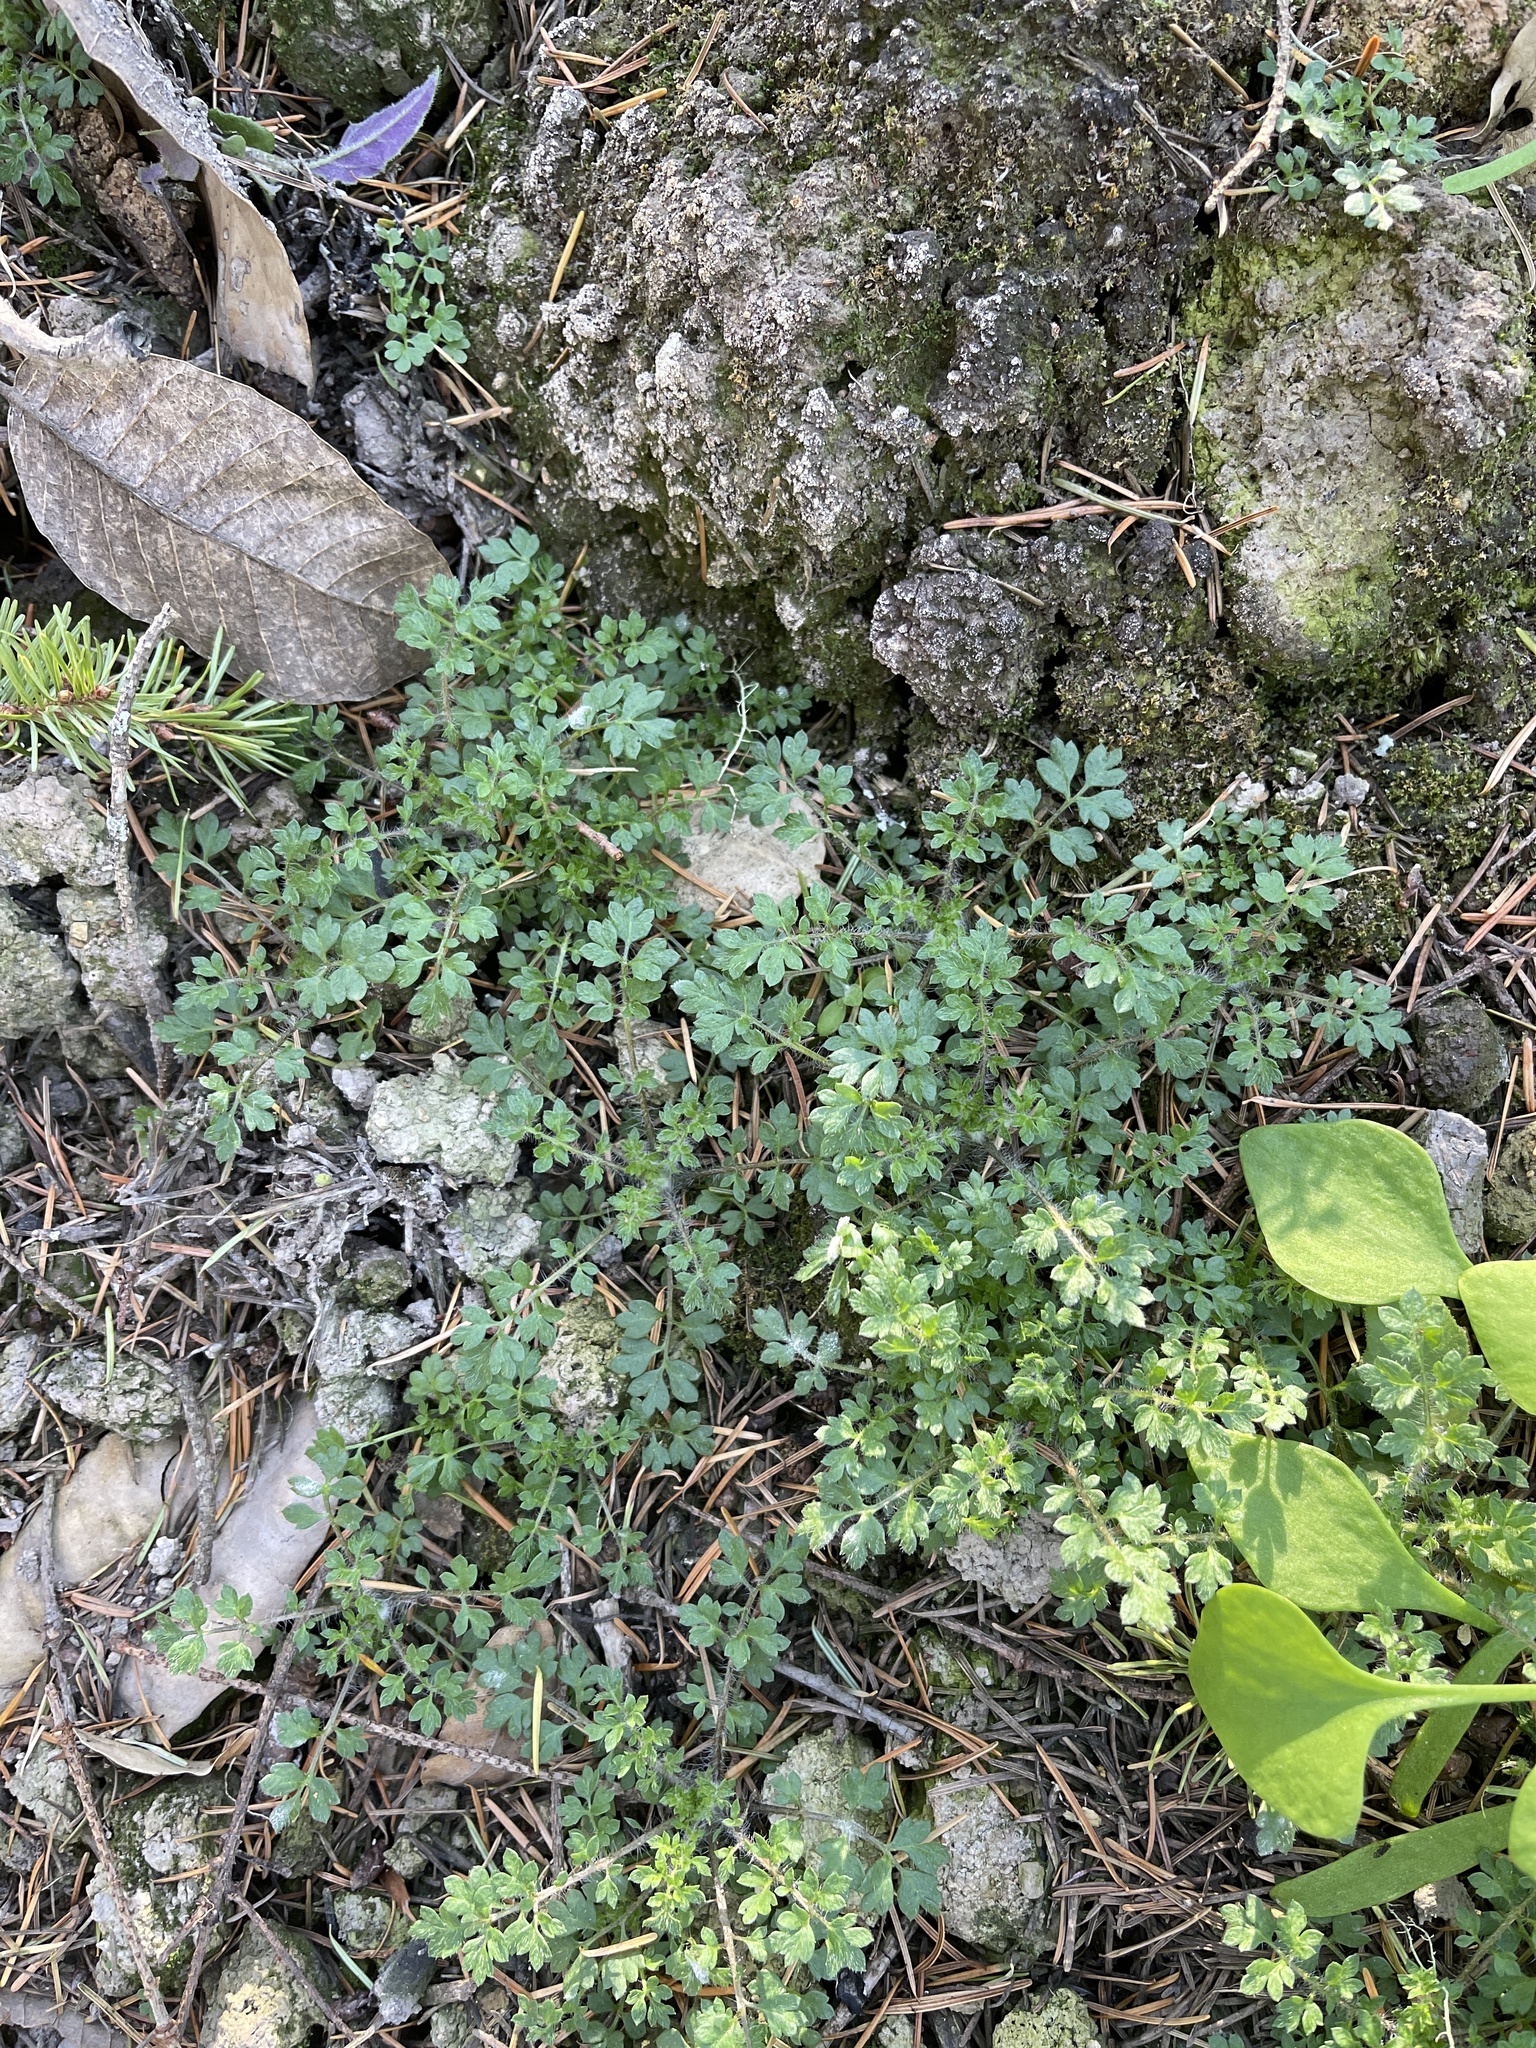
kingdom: Plantae
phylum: Tracheophyta
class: Magnoliopsida
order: Ericales
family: Polemoniaceae
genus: Collomia
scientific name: Collomia heterophylla
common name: Variable-leaved collomia
